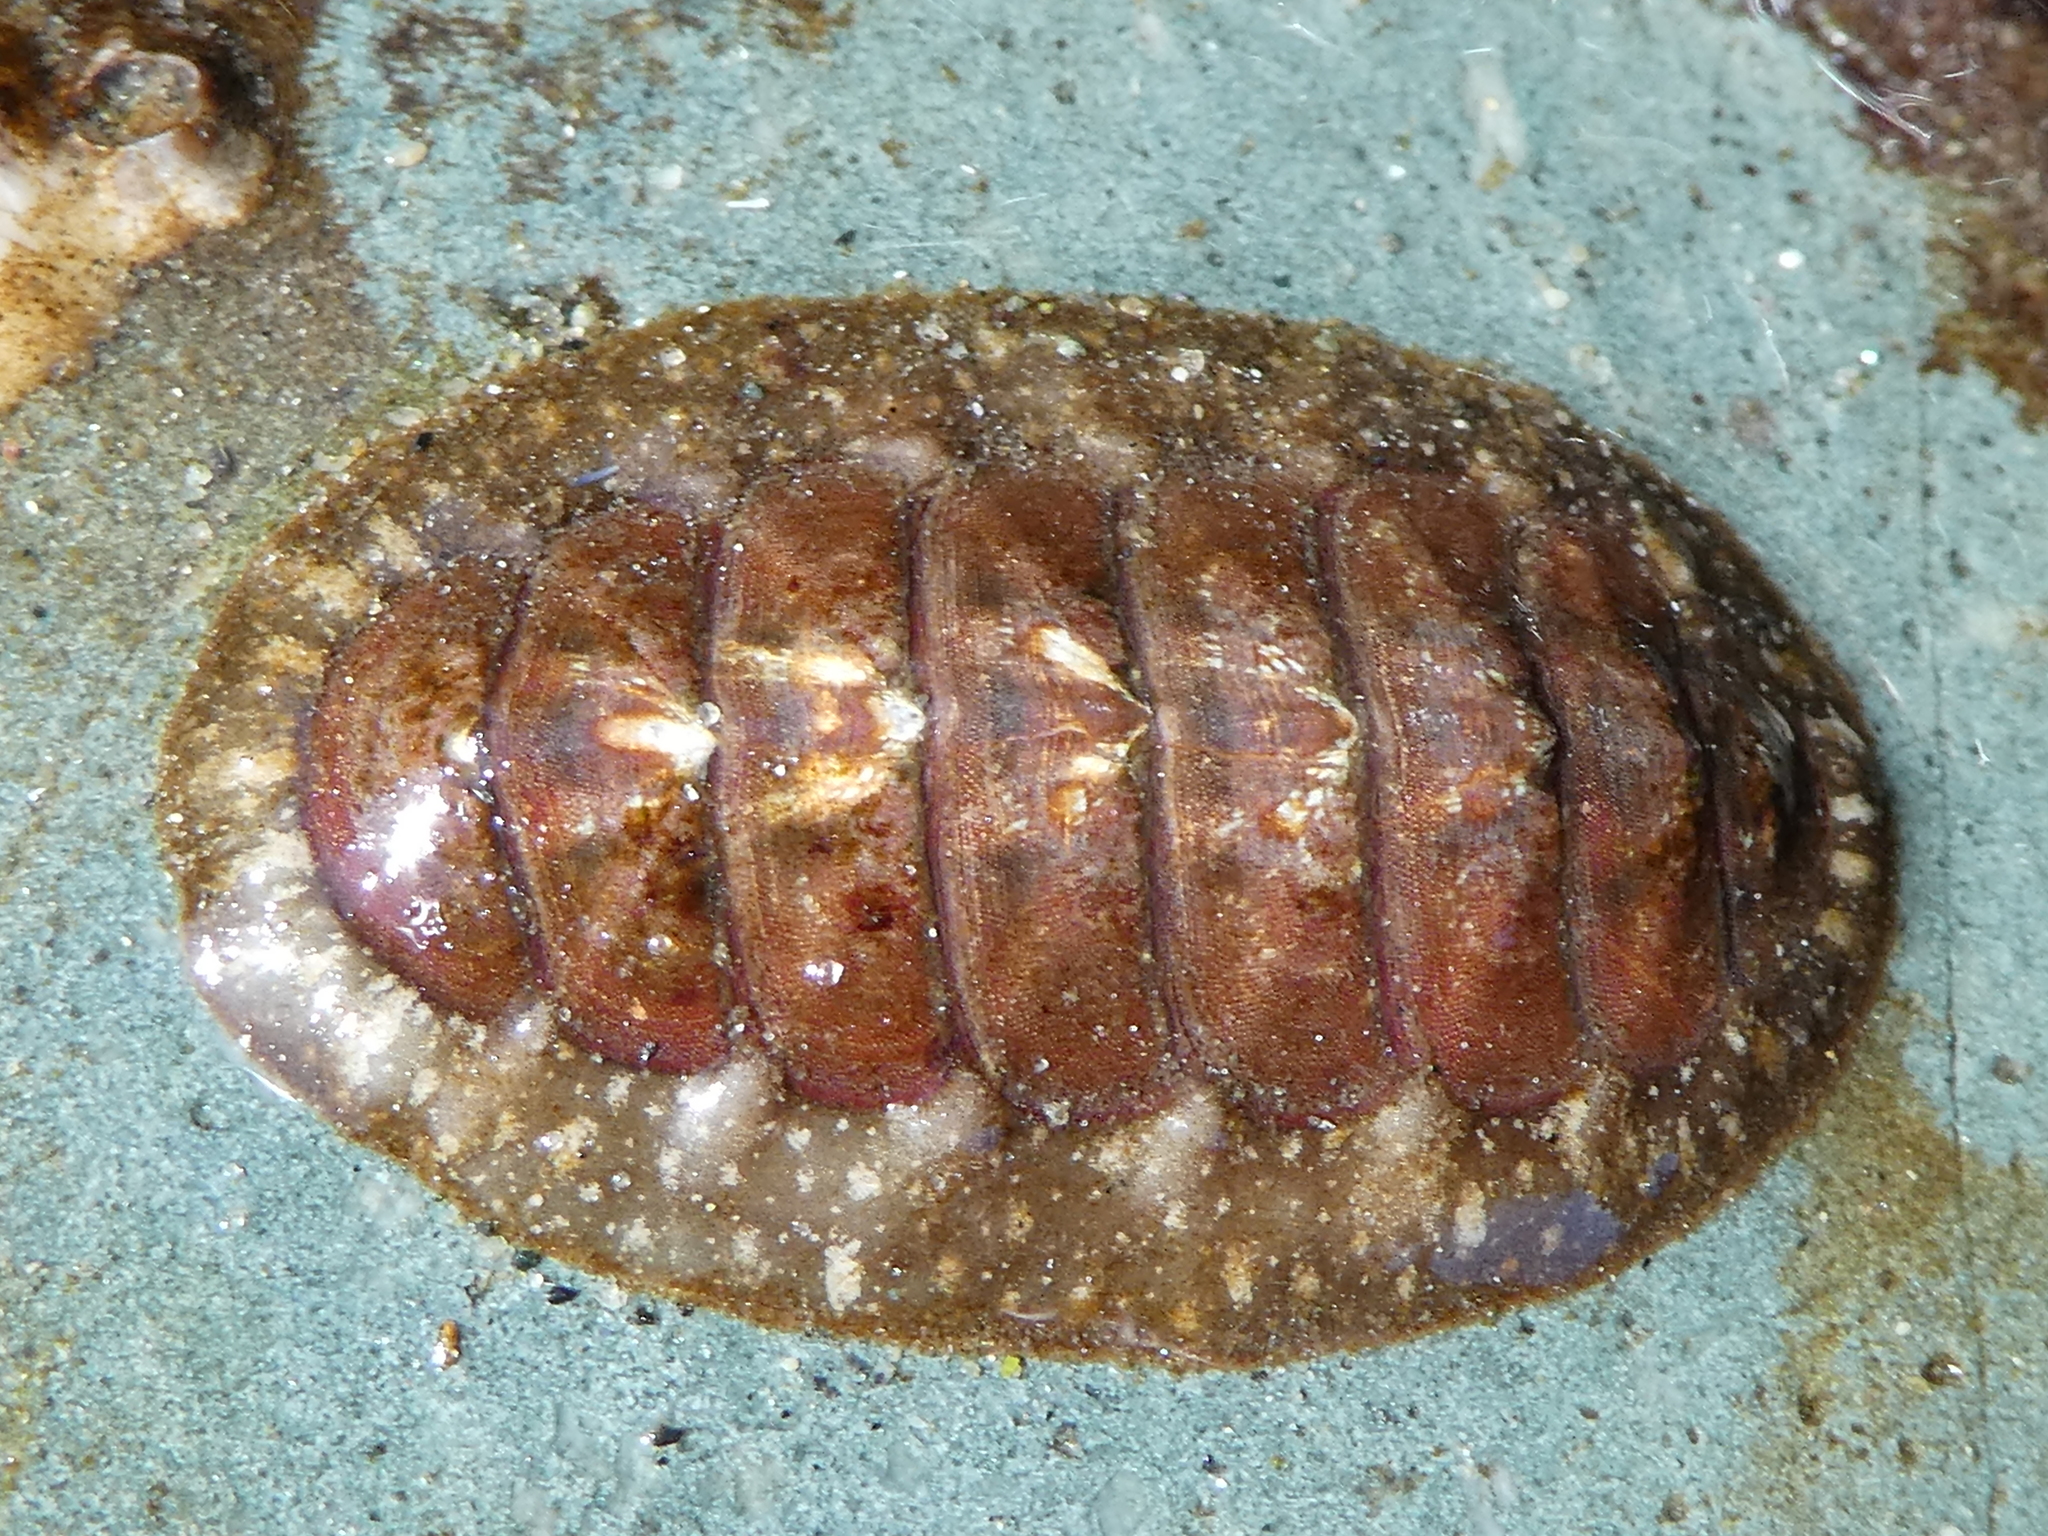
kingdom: Animalia
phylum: Mollusca
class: Polyplacophora
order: Chitonida
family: Tonicellidae
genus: Cyanoplax
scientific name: Cyanoplax dentiens
